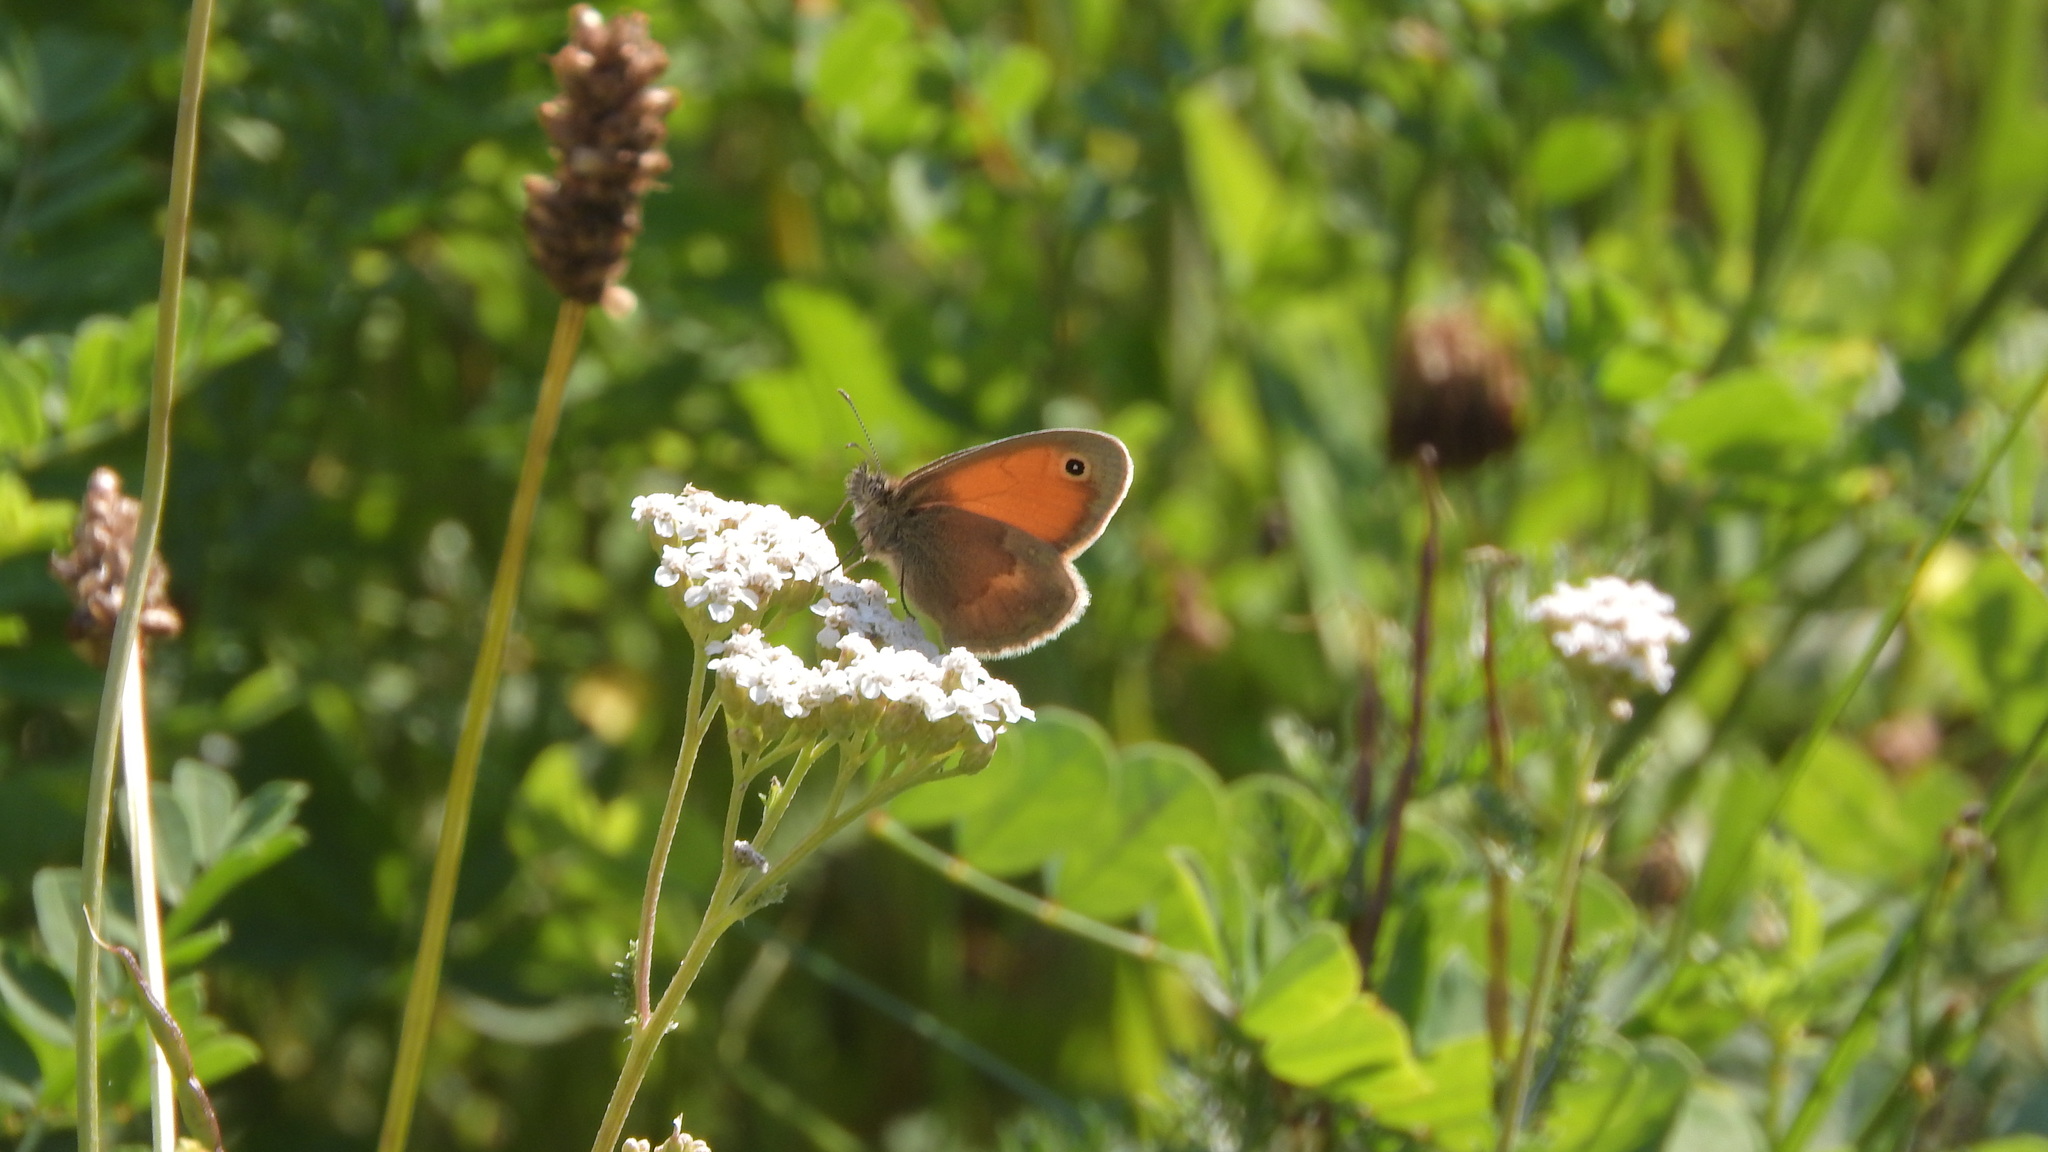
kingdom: Animalia
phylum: Arthropoda
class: Insecta
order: Lepidoptera
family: Nymphalidae
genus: Coenonympha
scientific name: Coenonympha pamphilus
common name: Small heath
